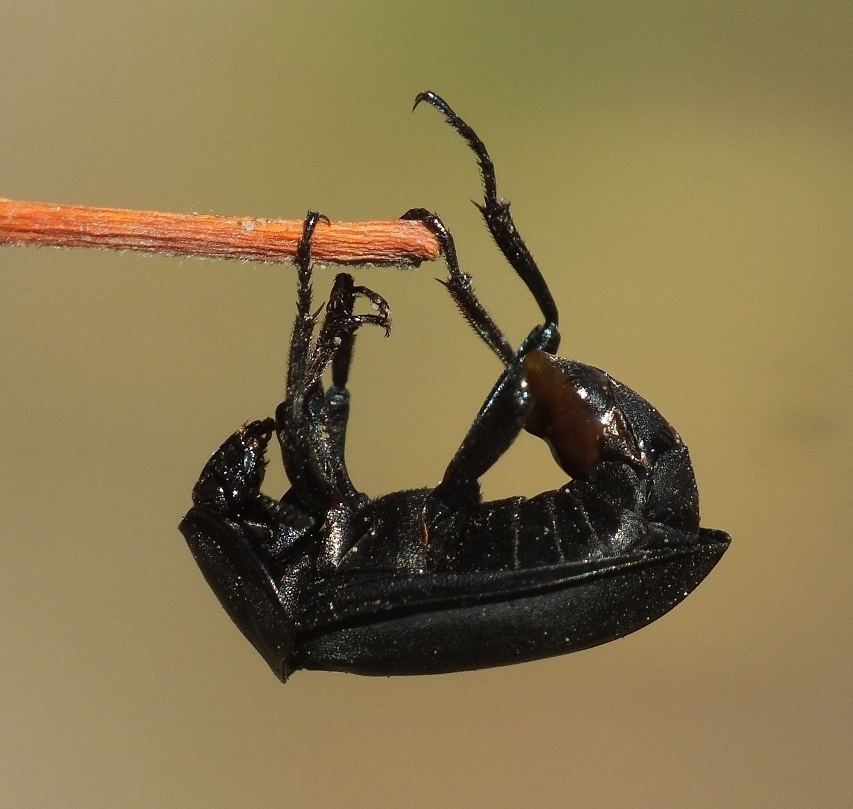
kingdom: Animalia
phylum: Arthropoda
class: Insecta
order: Coleoptera
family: Staphylinidae
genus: Silpha
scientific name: Silpha obscura
